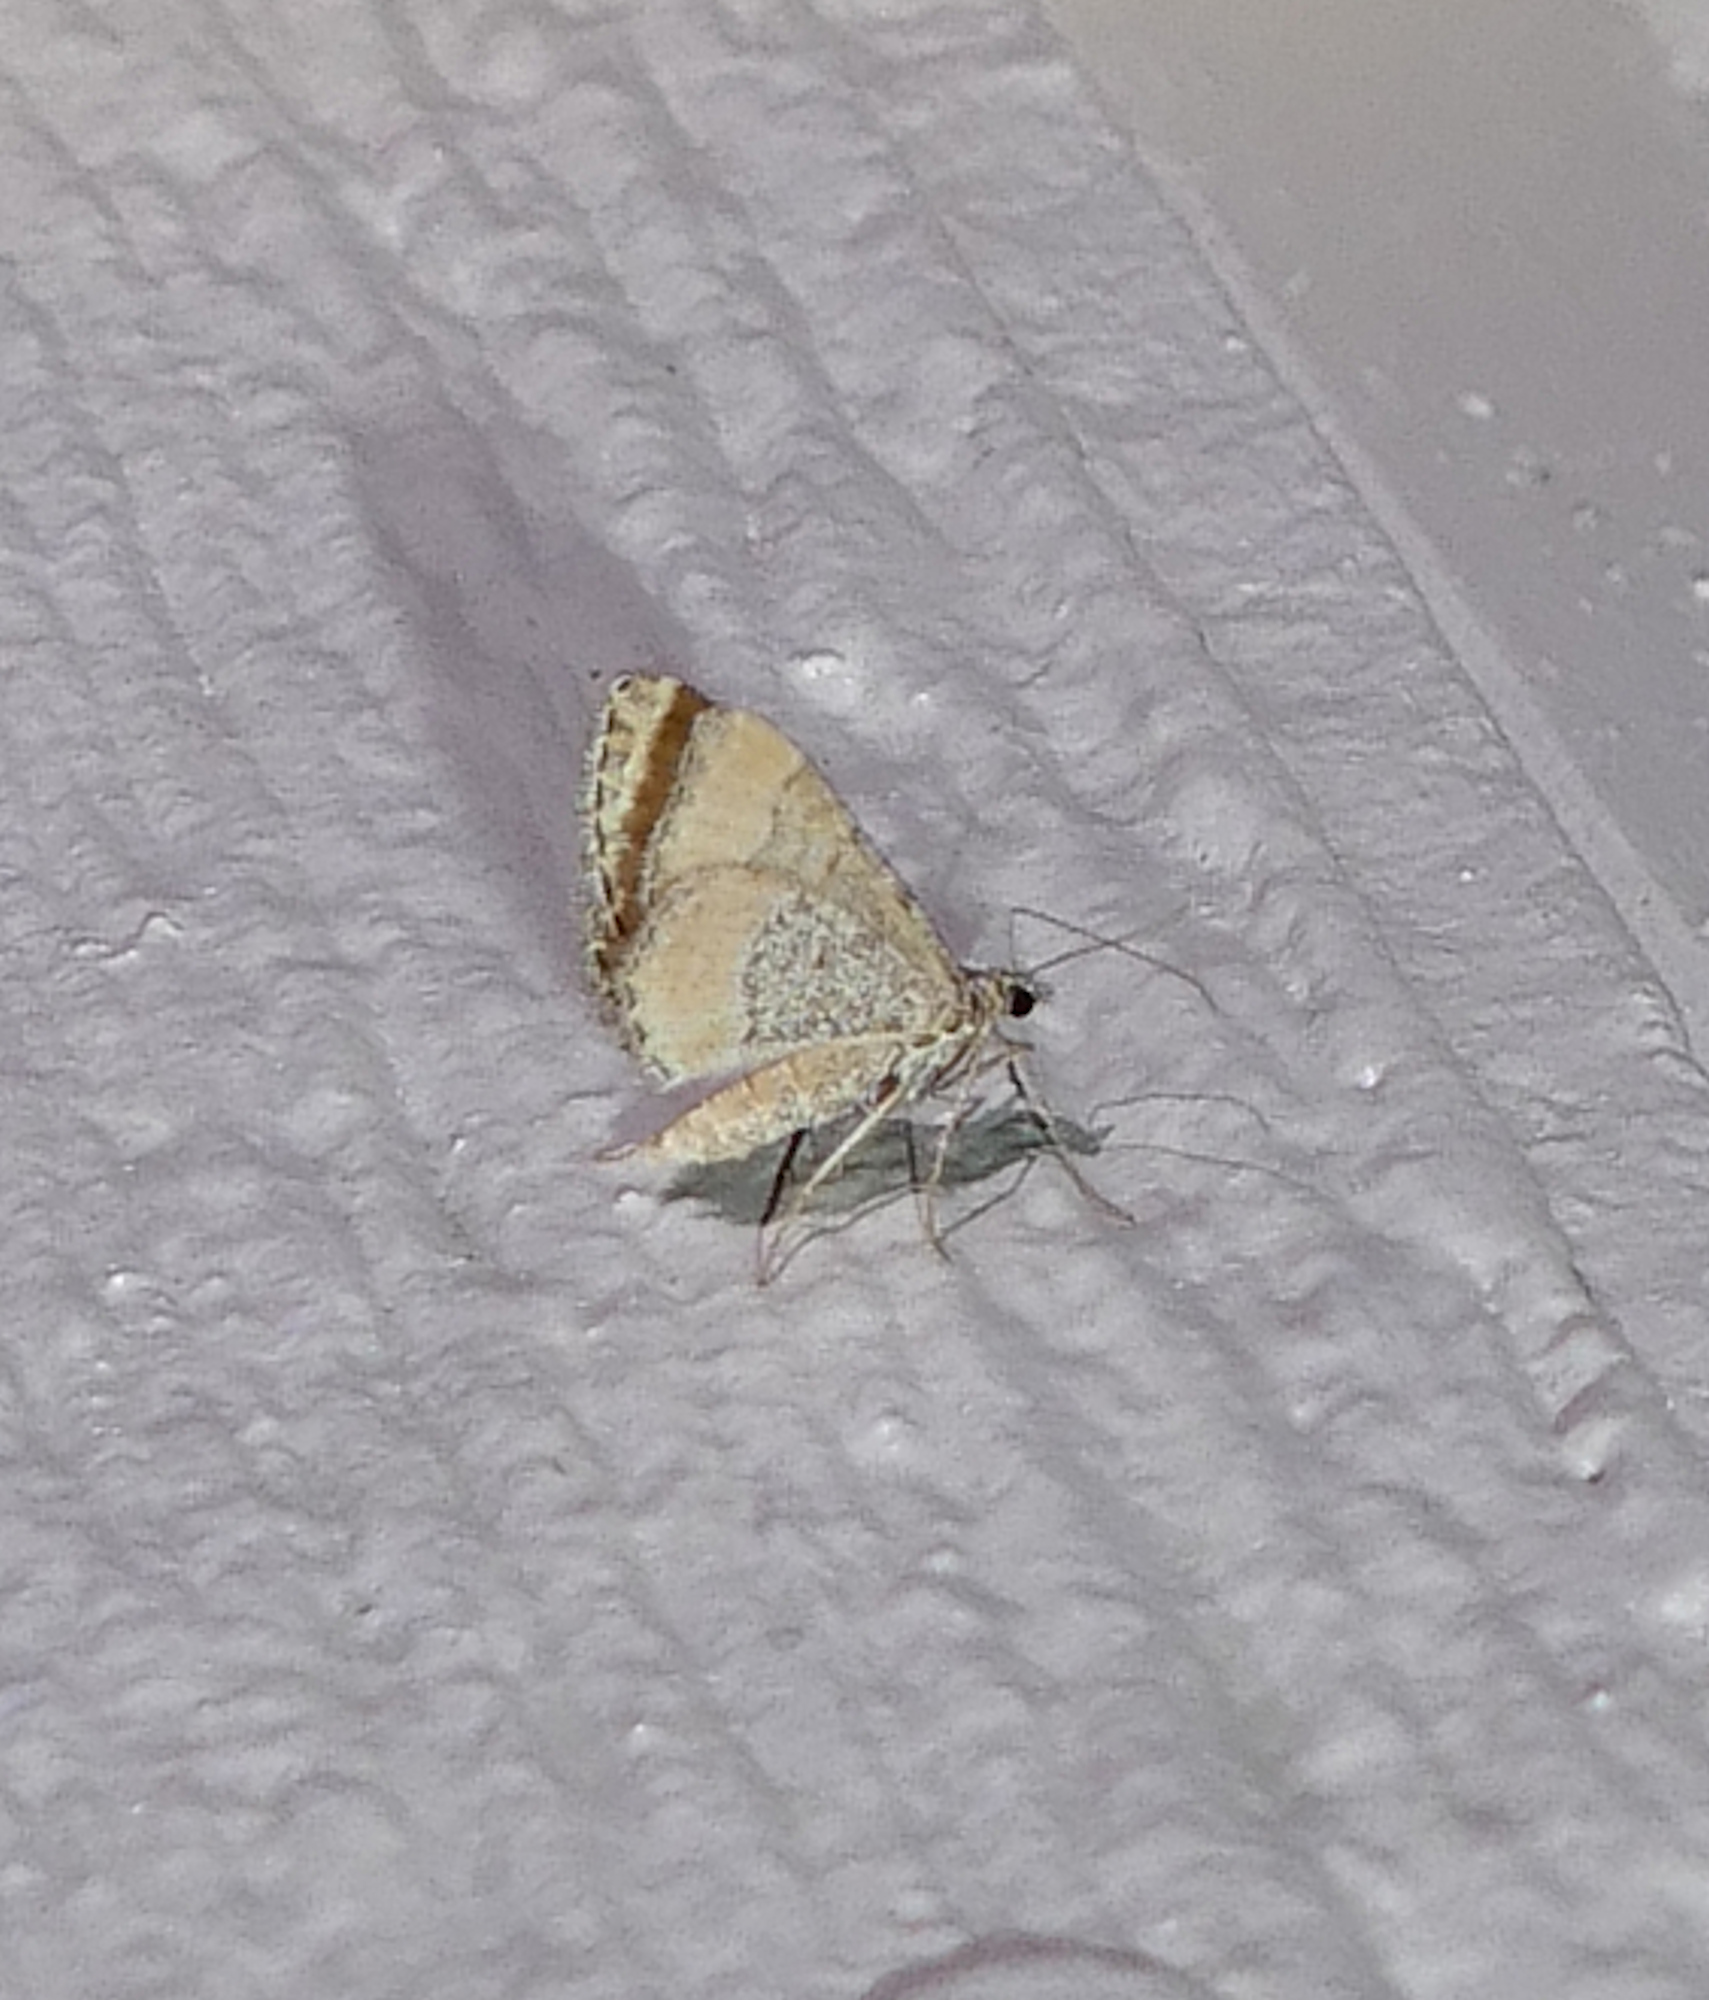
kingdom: Animalia
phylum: Arthropoda
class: Insecta
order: Lepidoptera
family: Geometridae
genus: Perizoma
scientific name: Perizoma custodiata
